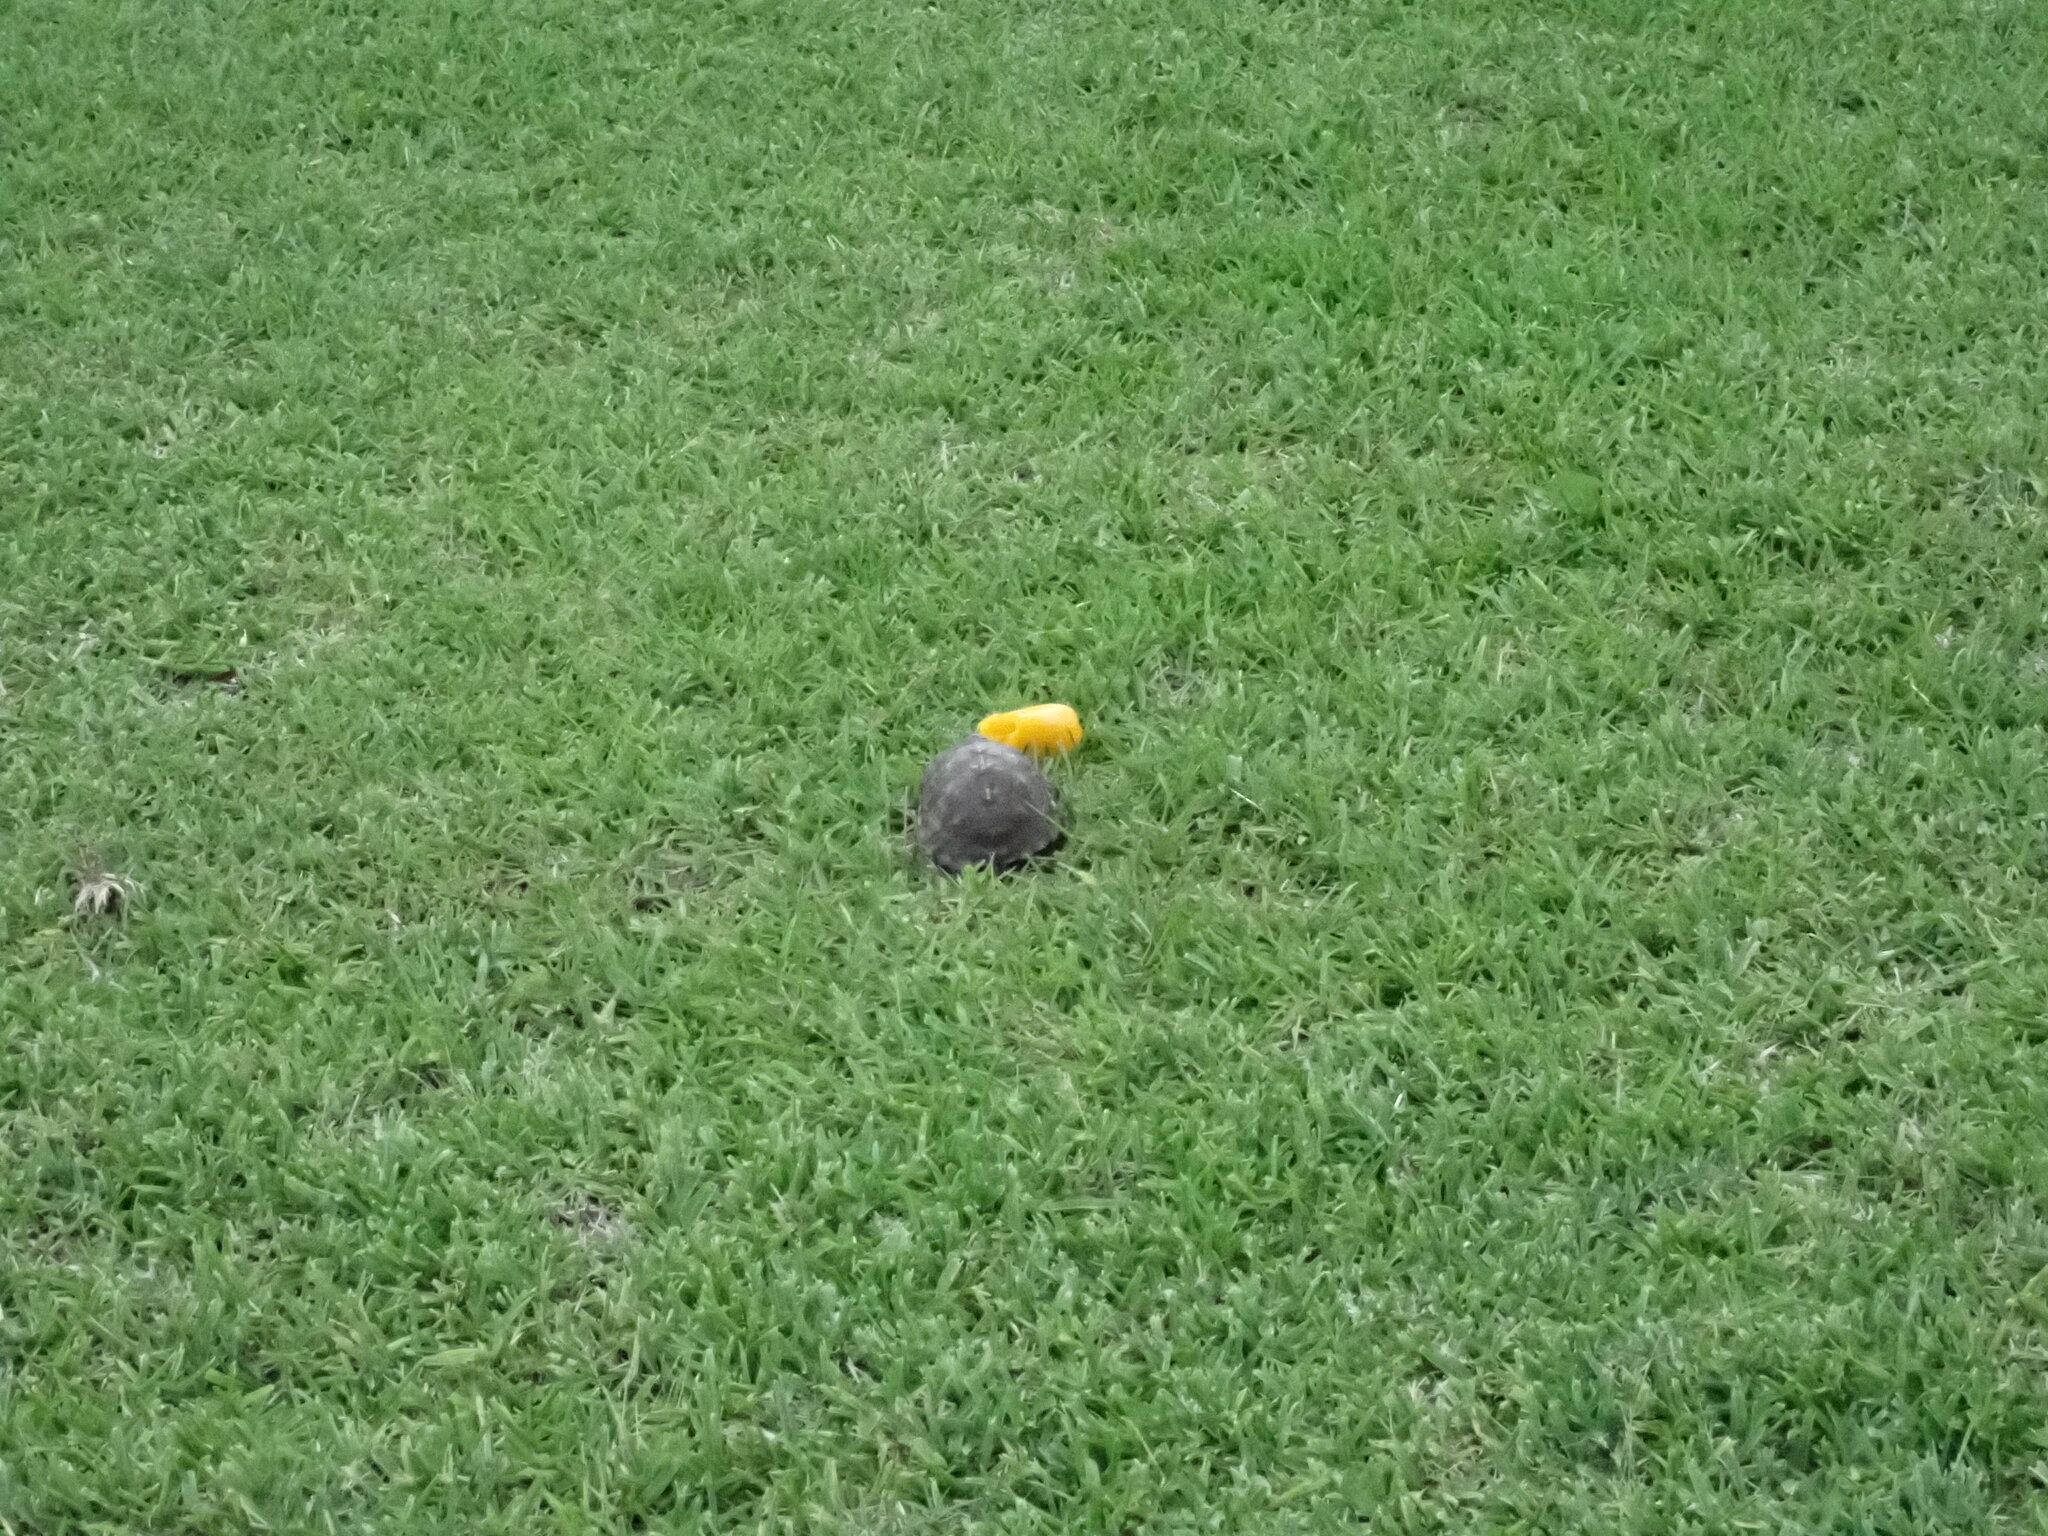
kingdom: Animalia
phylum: Chordata
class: Testudines
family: Emydidae
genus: Terrapene
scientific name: Terrapene carolina
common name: Common box turtle
